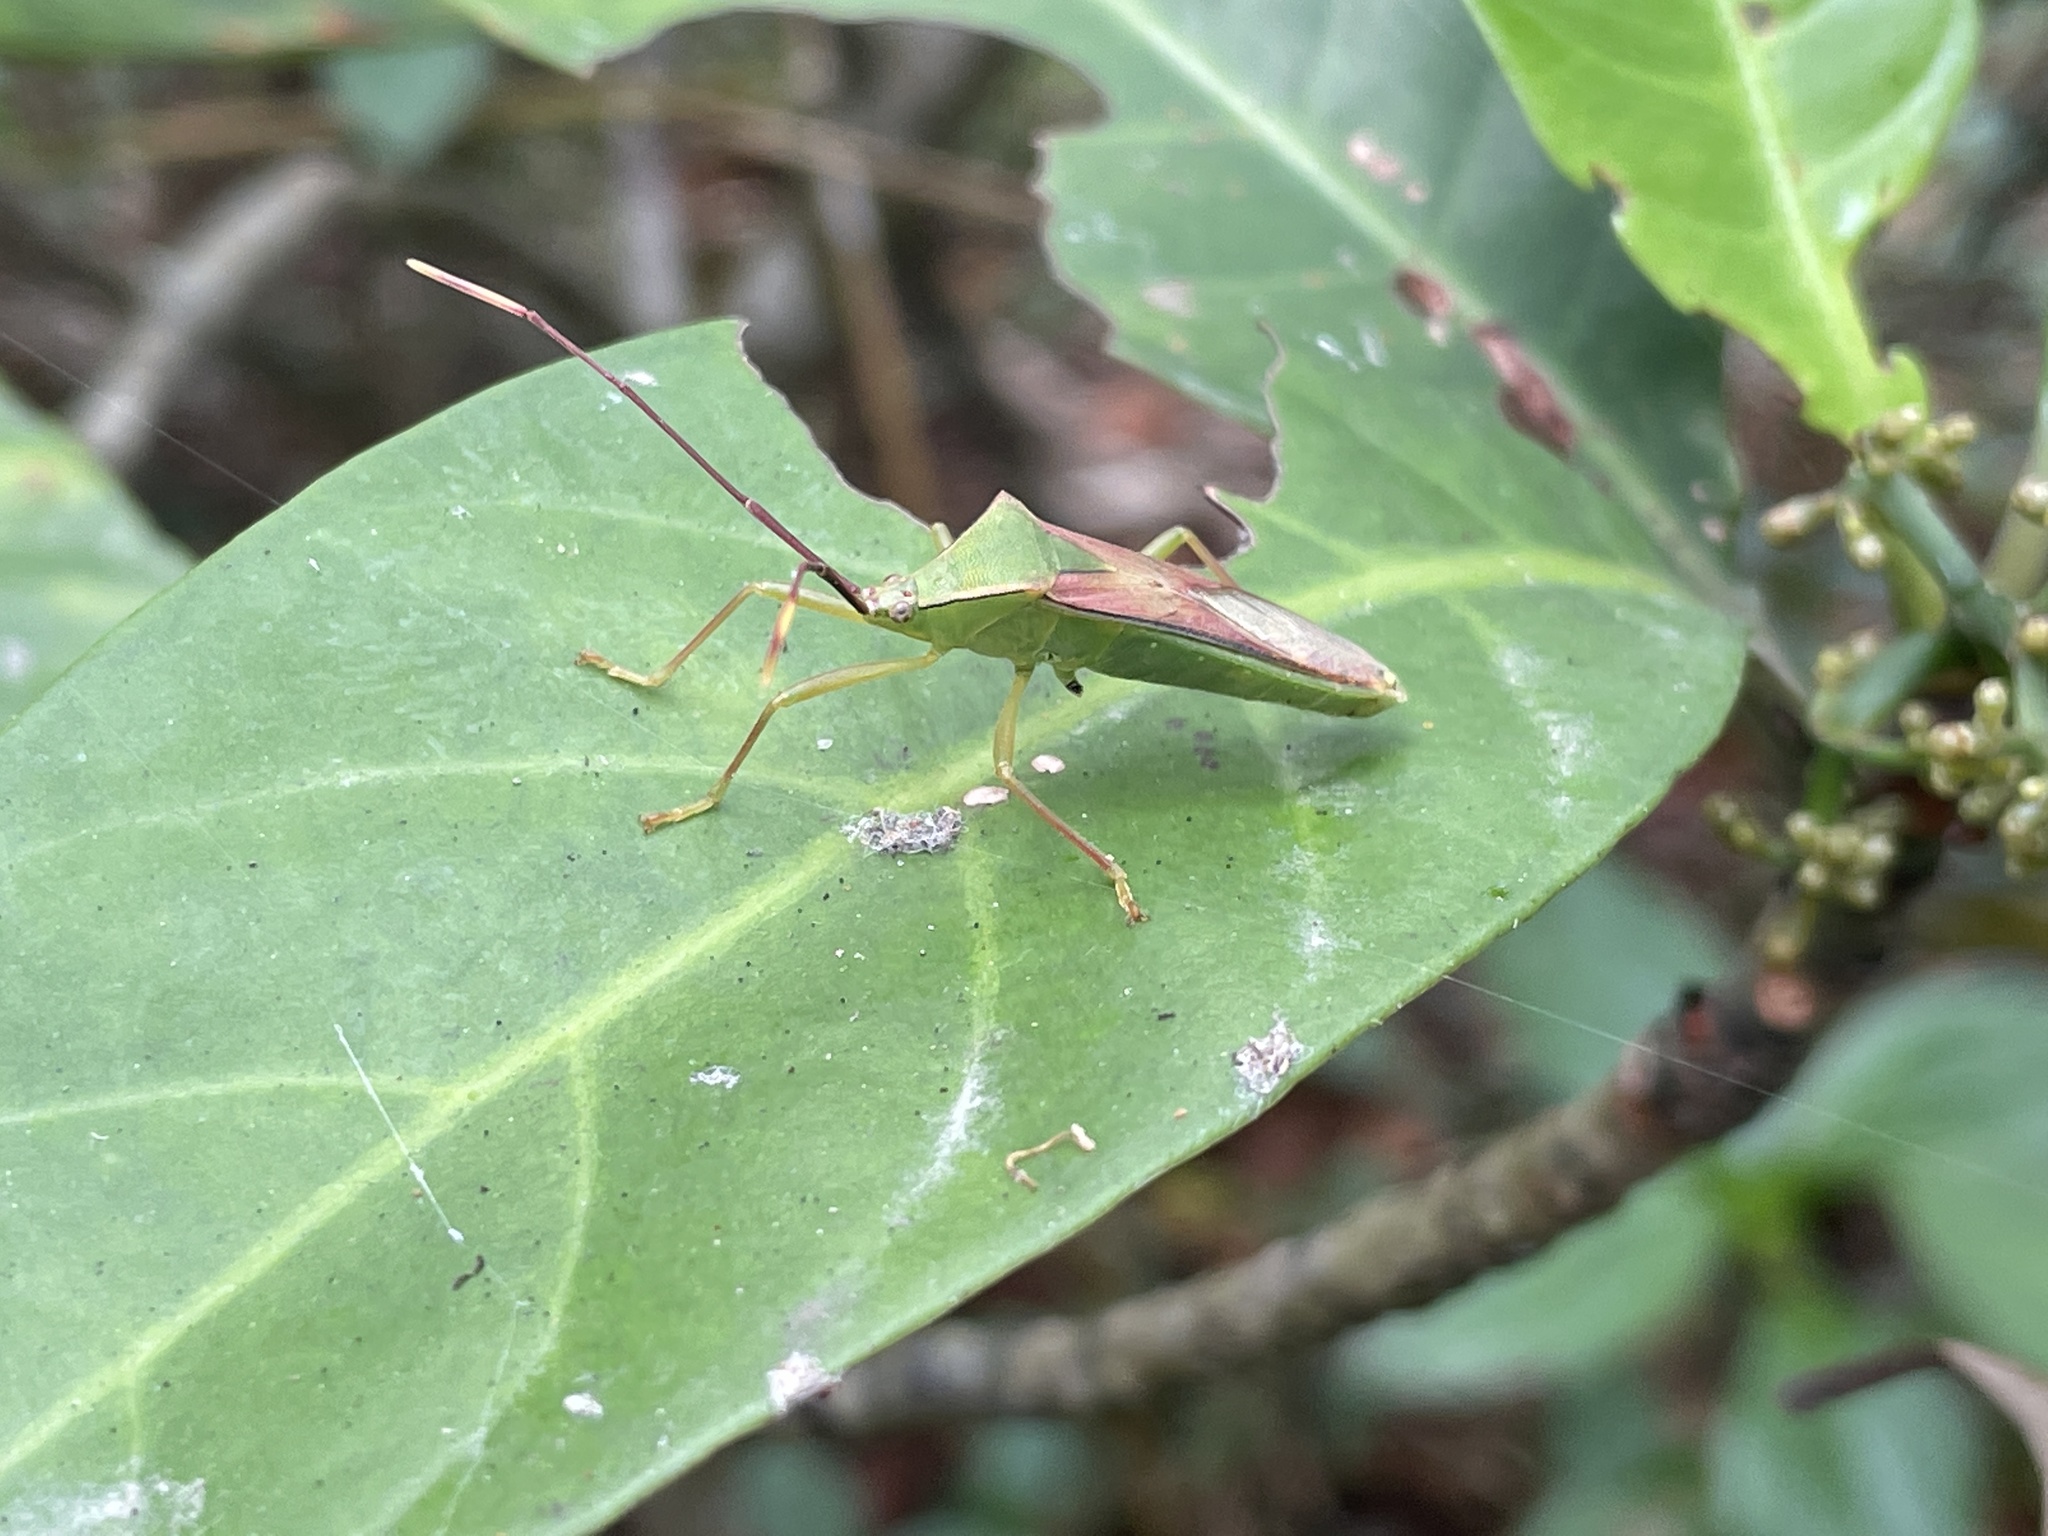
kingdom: Animalia
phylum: Arthropoda
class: Insecta
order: Hemiptera
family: Coreidae
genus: Homoeocerus
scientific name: Homoeocerus striicornis
